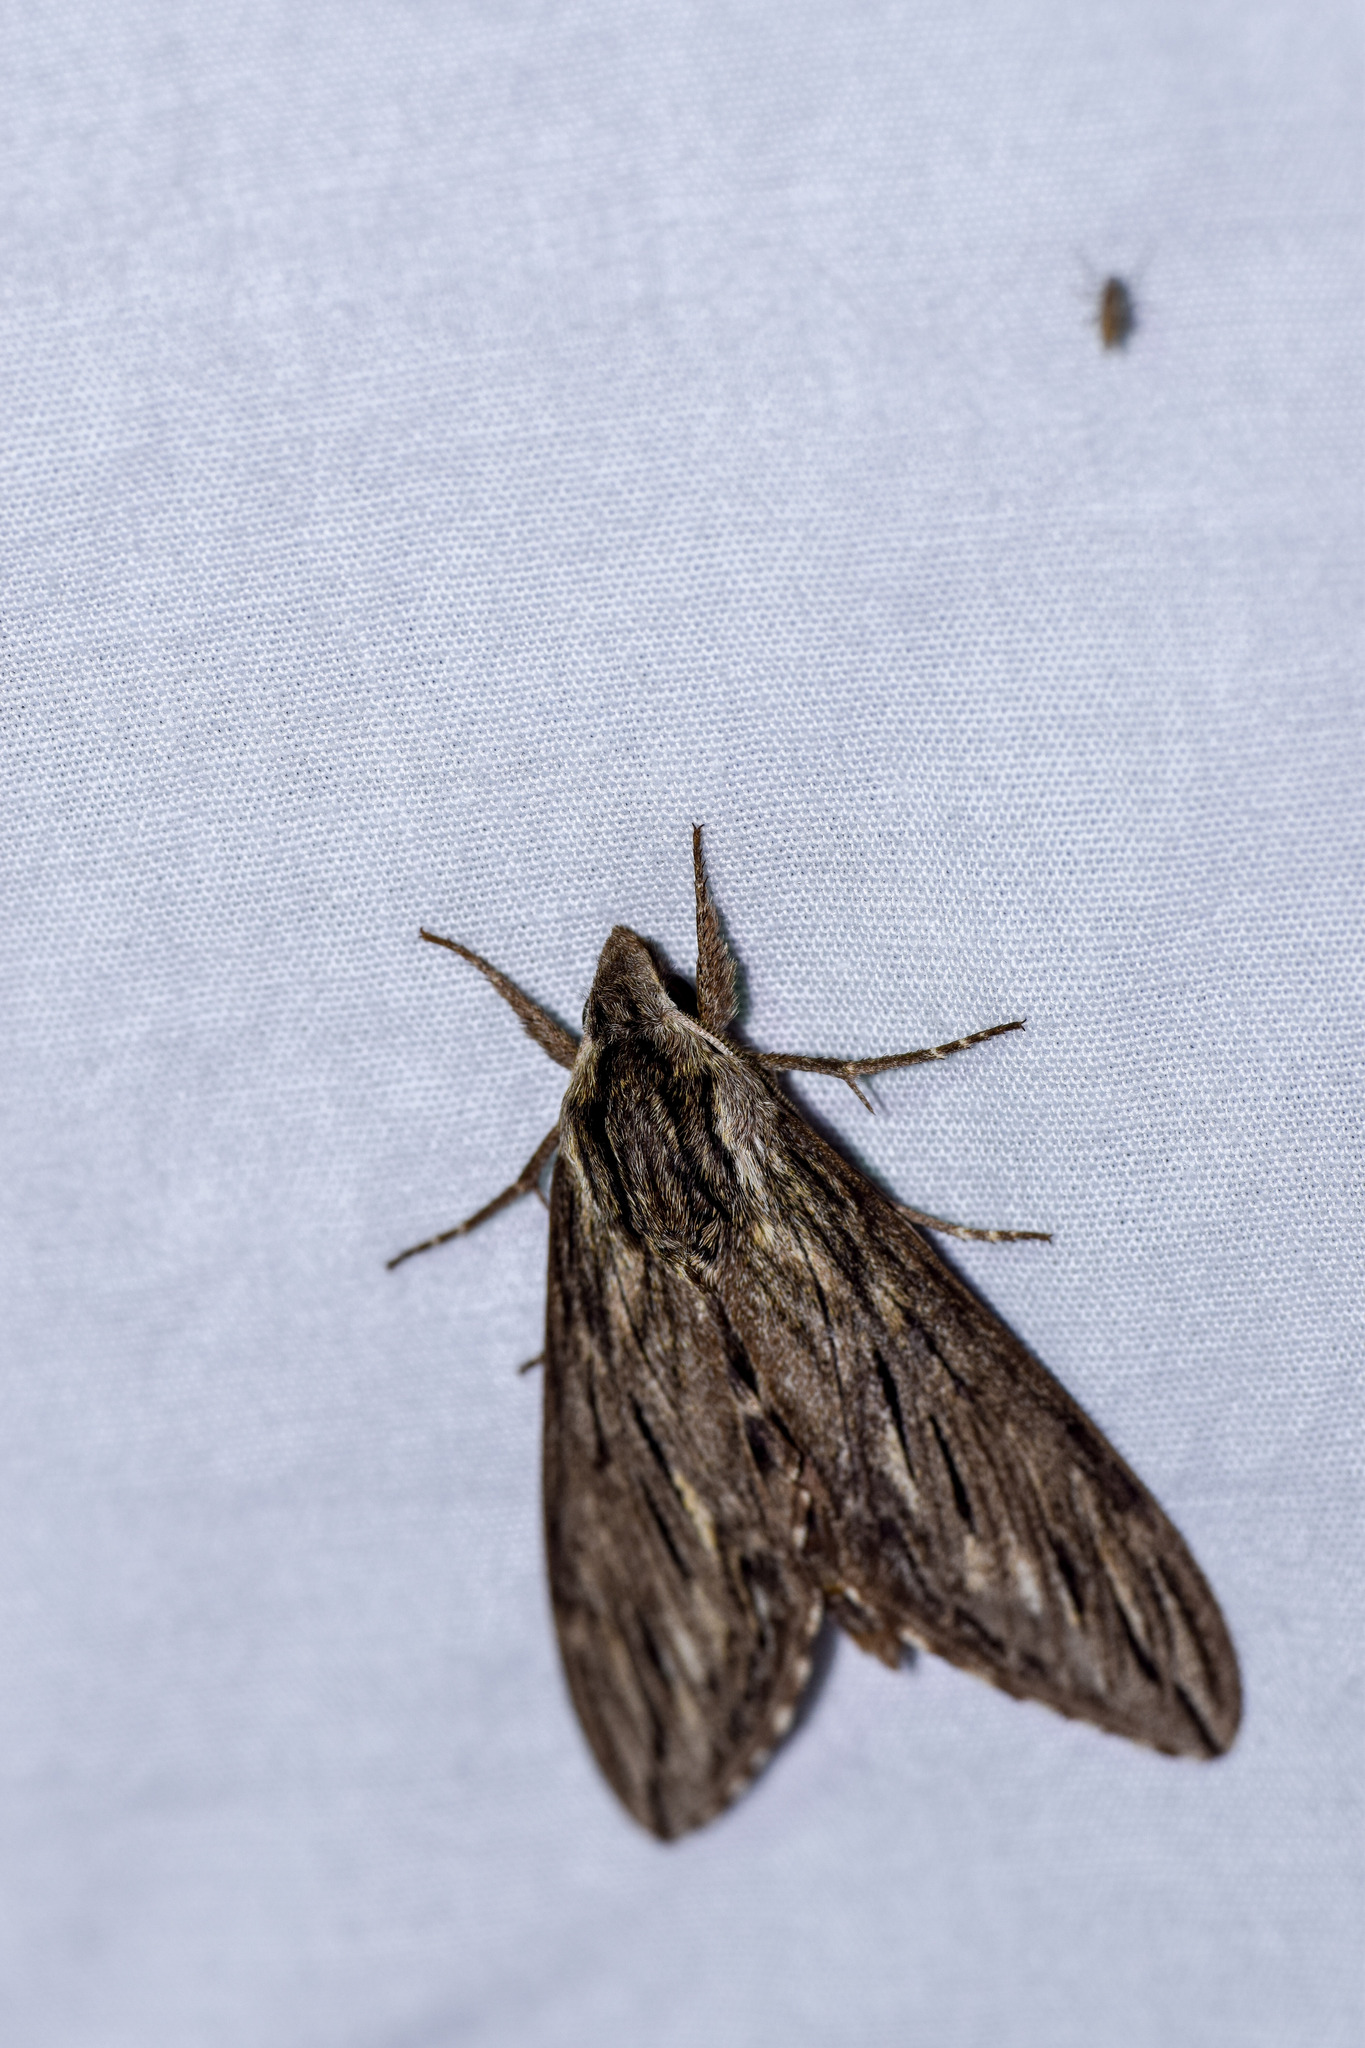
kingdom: Animalia
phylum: Arthropoda
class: Insecta
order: Lepidoptera
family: Sphingidae
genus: Sphinx
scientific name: Sphinx canadensis
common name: Canadian sphinx
